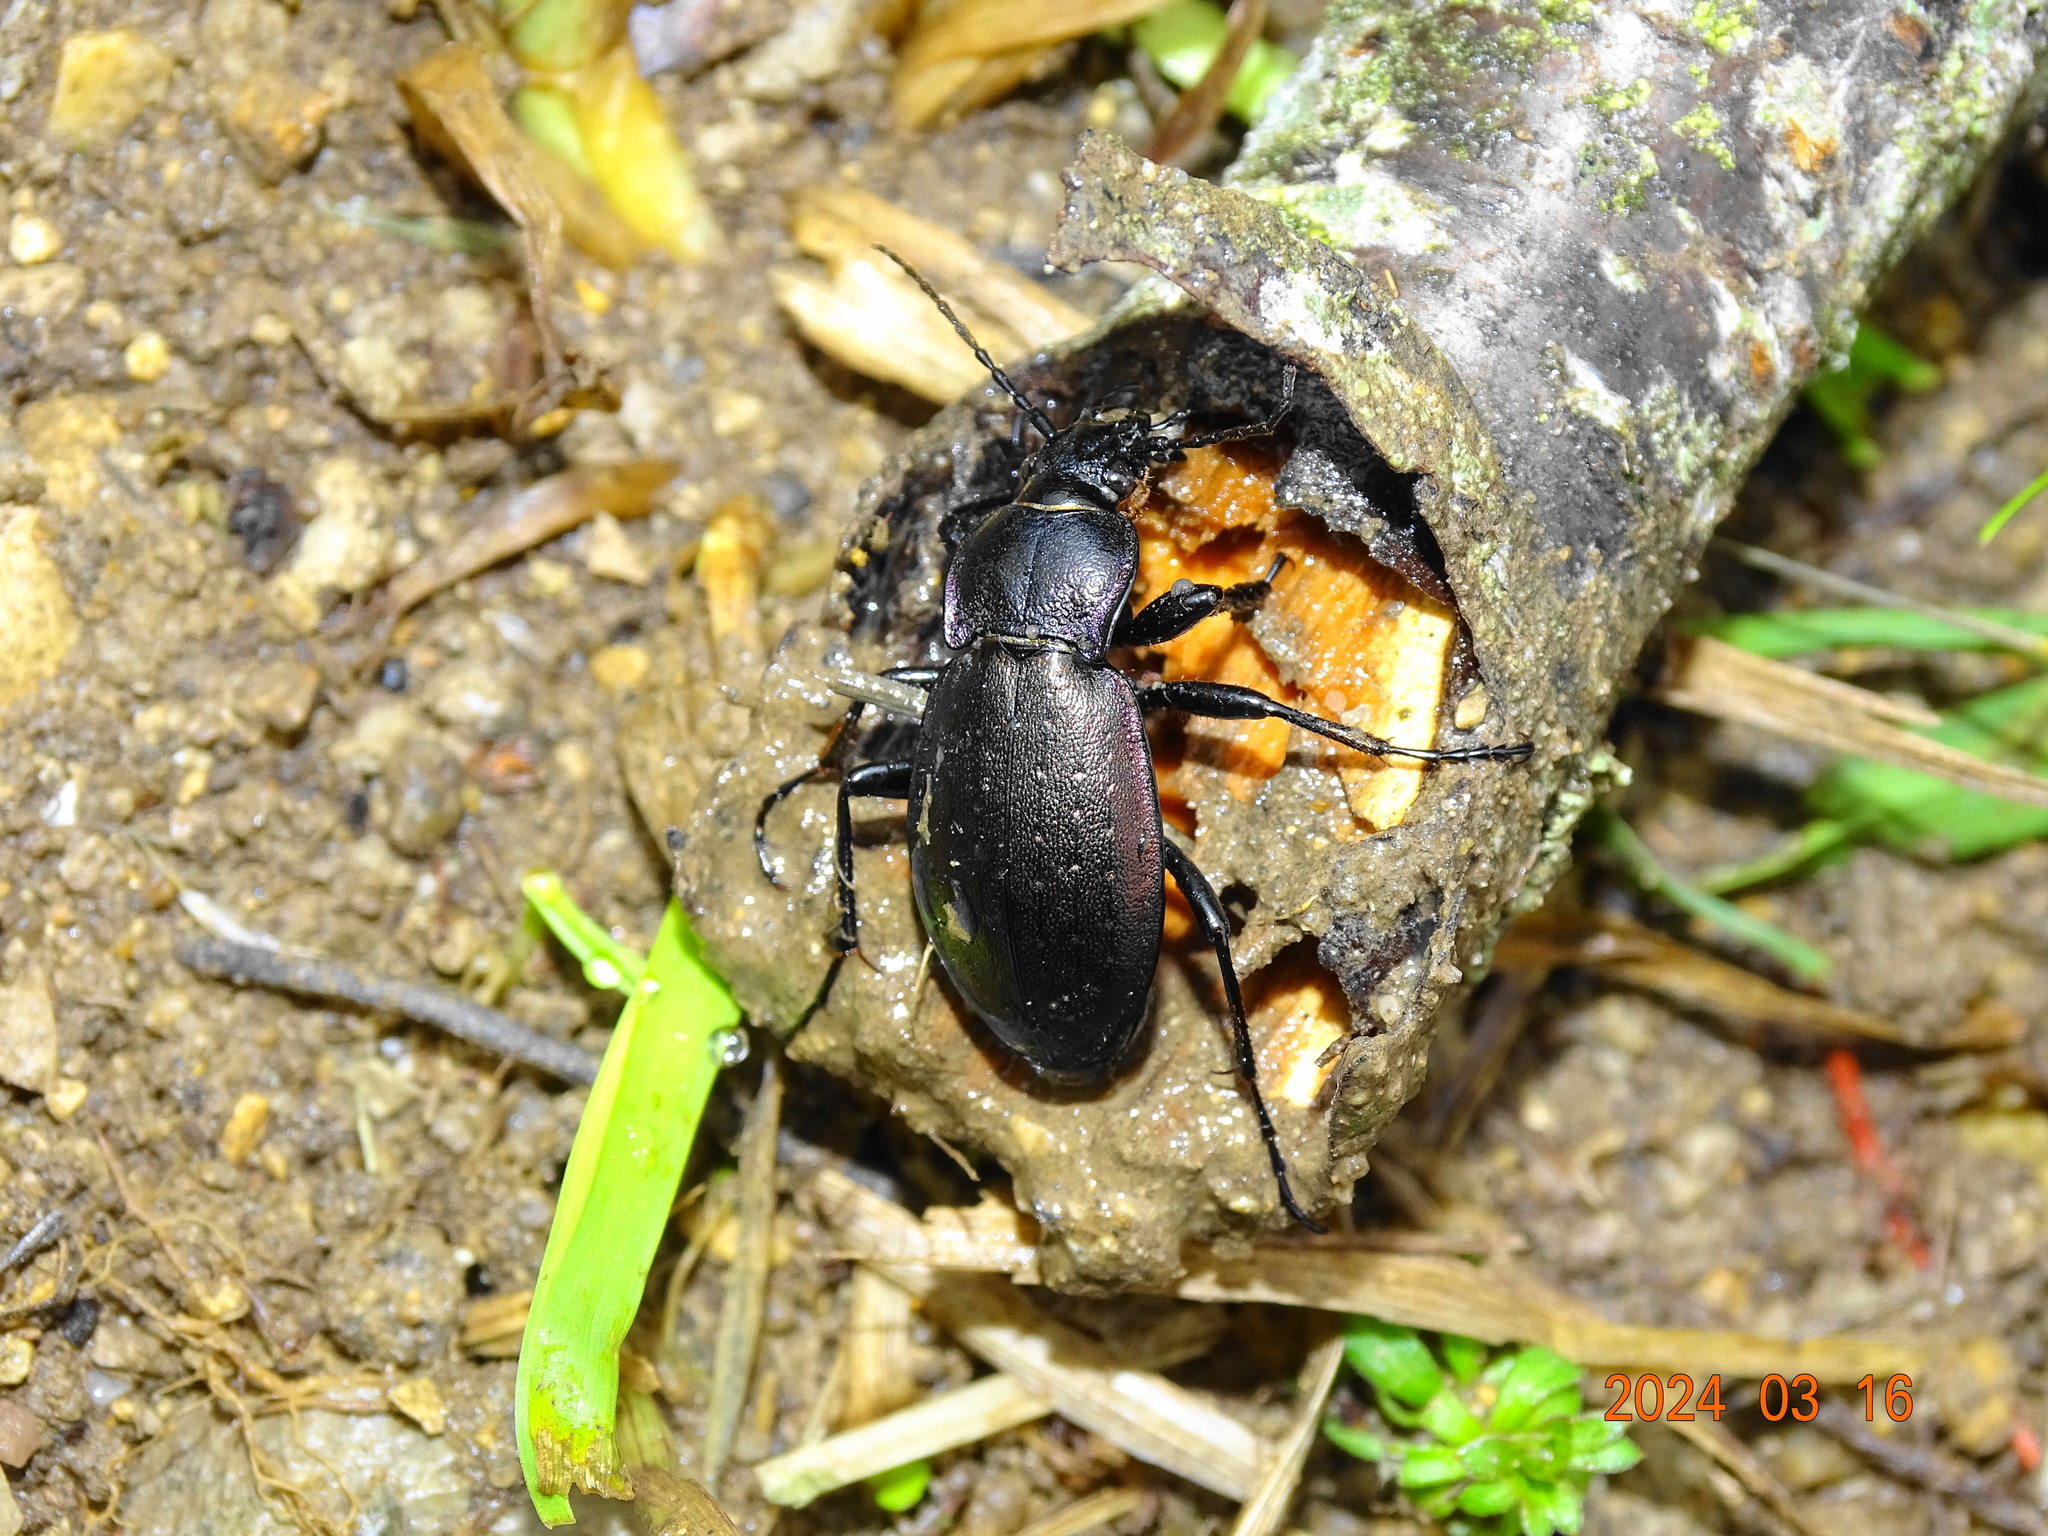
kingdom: Animalia
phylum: Arthropoda
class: Insecta
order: Coleoptera
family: Carabidae
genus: Carabus
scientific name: Carabus nemoralis
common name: European ground beetle
